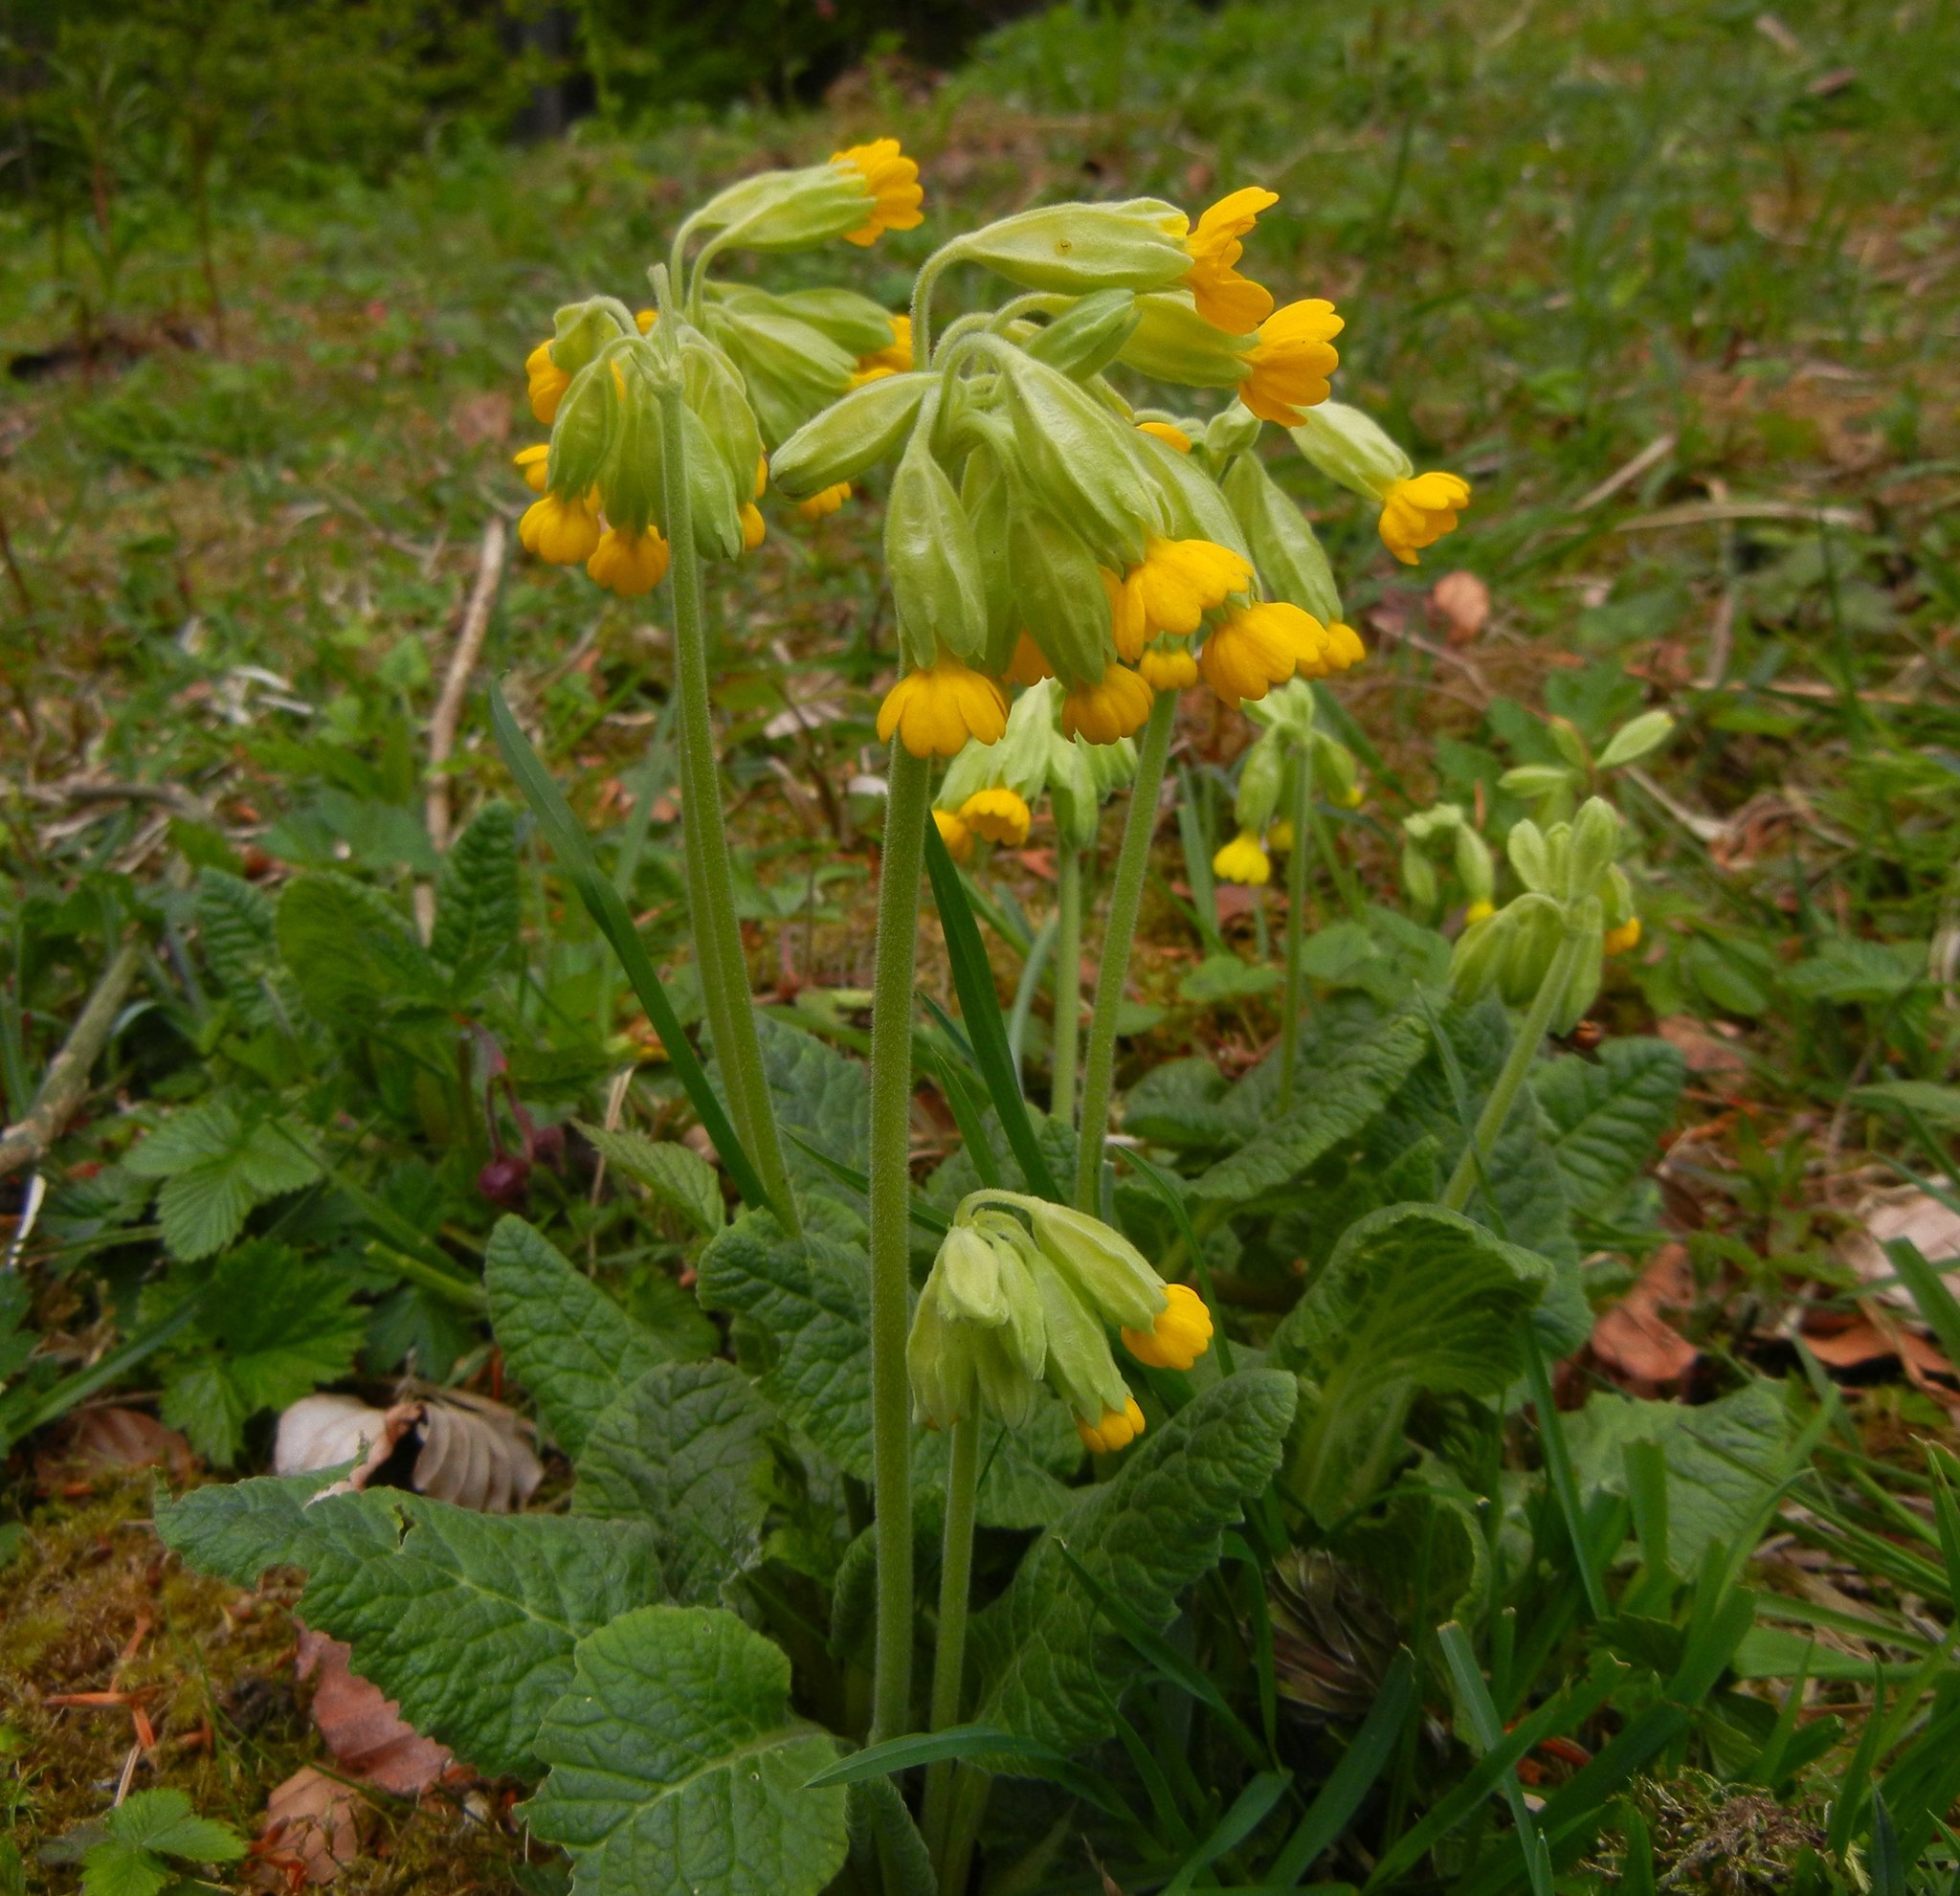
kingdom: Plantae
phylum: Tracheophyta
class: Magnoliopsida
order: Ericales
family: Primulaceae
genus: Primula
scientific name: Primula veris
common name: Cowslip
